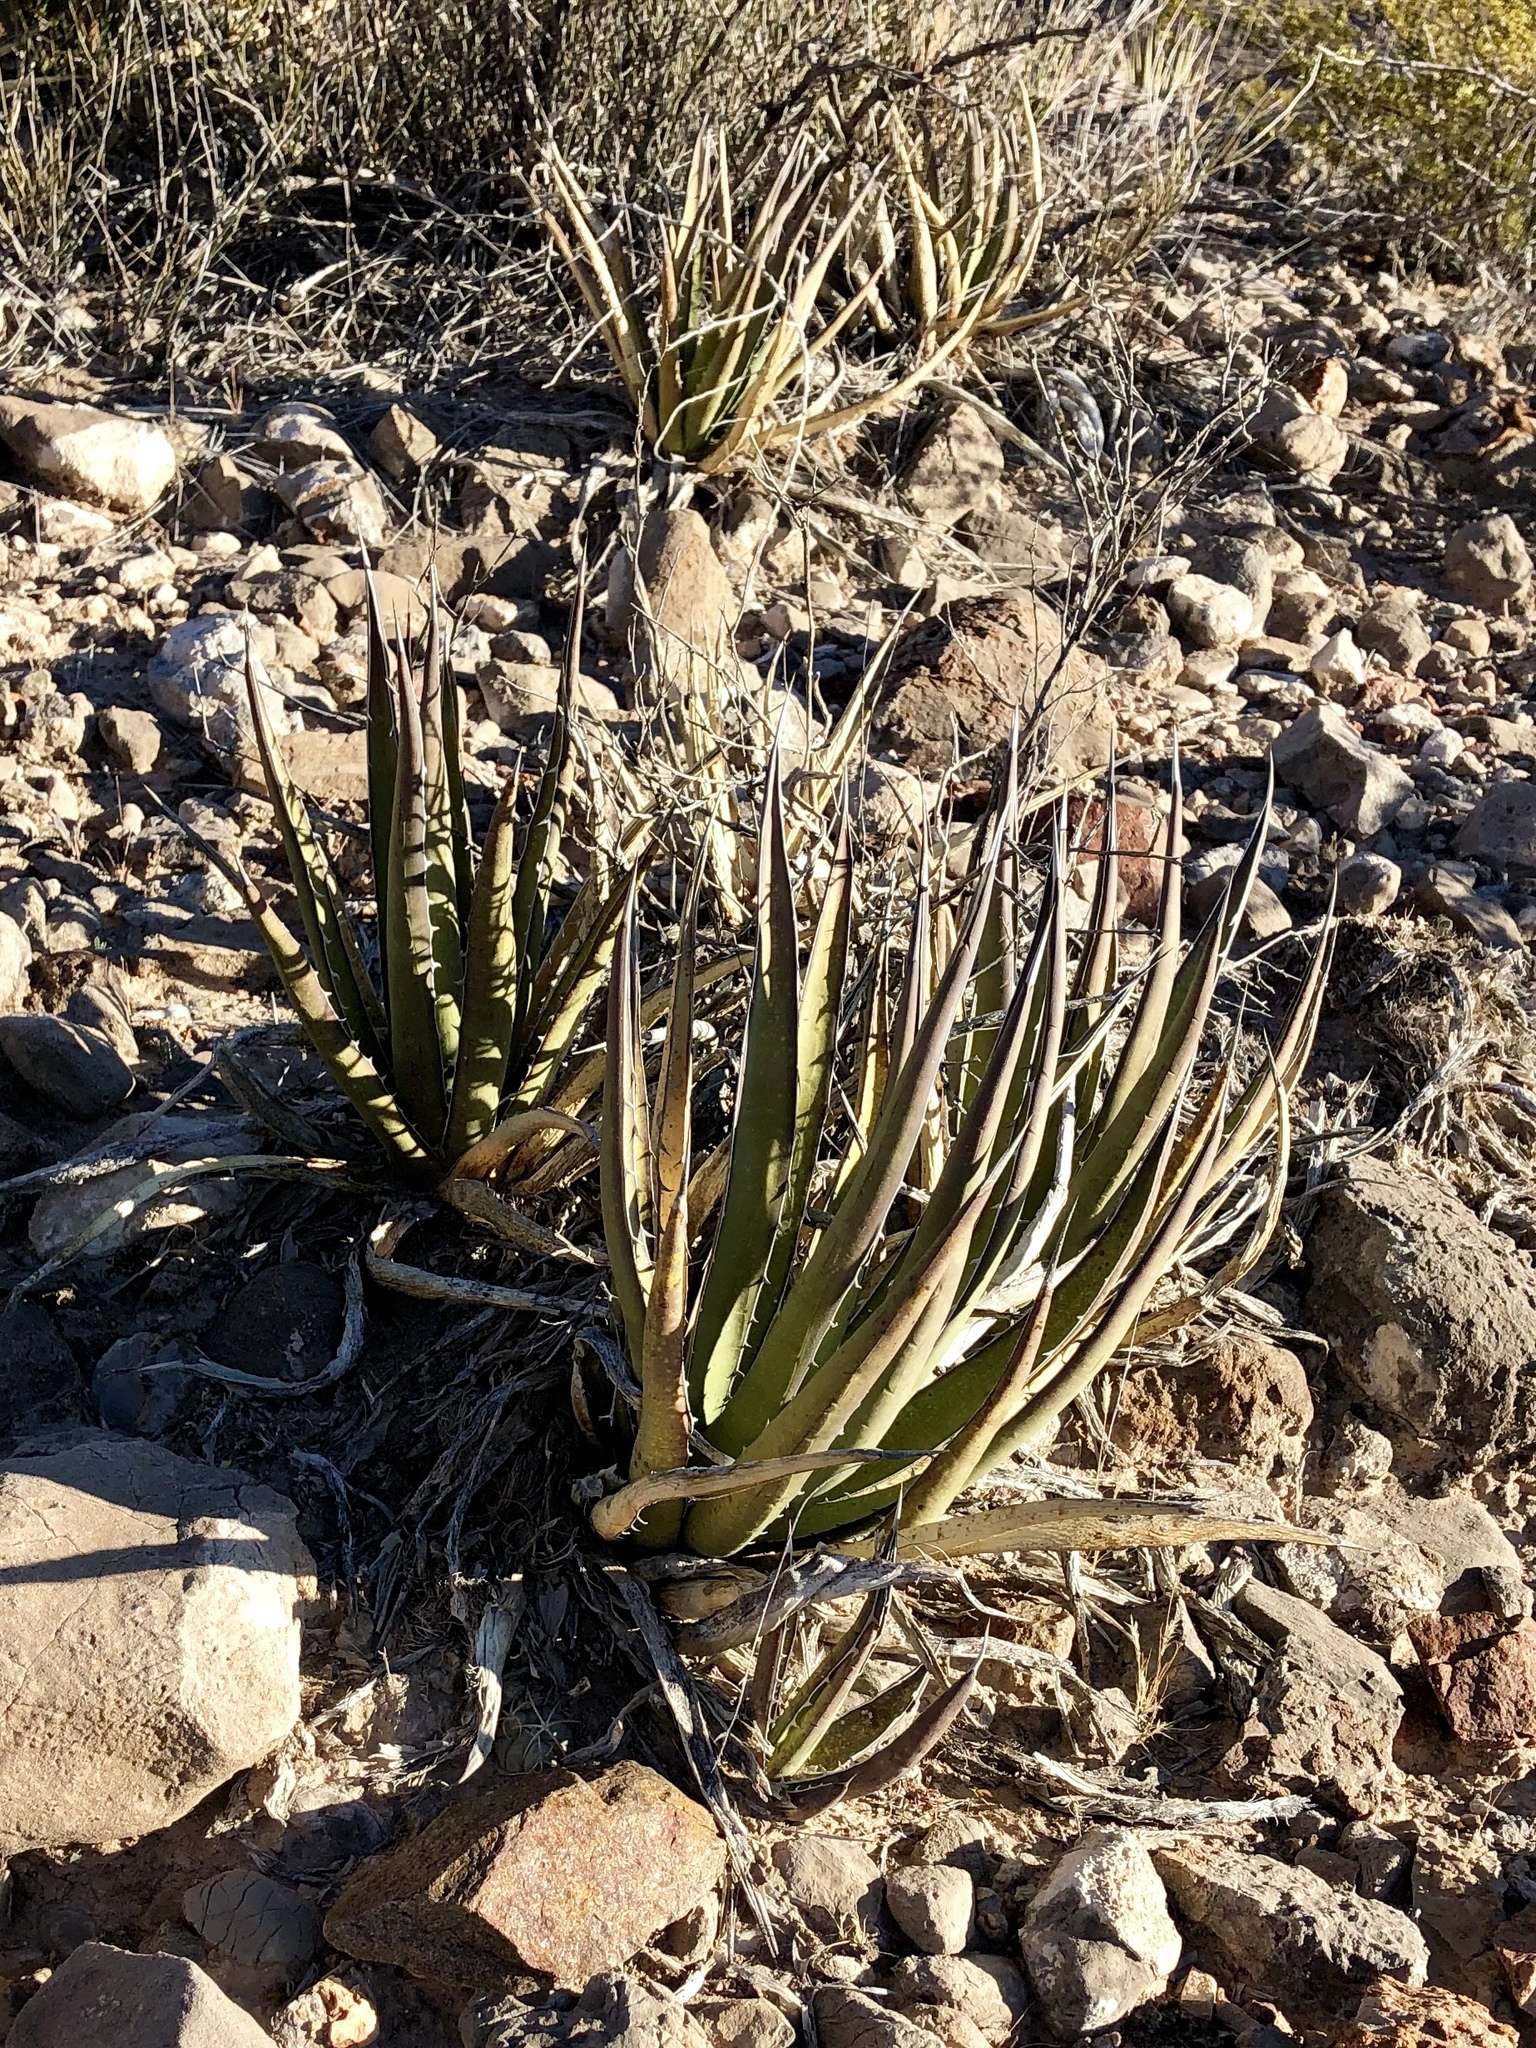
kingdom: Plantae
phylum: Tracheophyta
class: Liliopsida
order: Asparagales
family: Asparagaceae
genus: Agave
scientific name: Agave lechuguilla
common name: Lecheguilla agave
